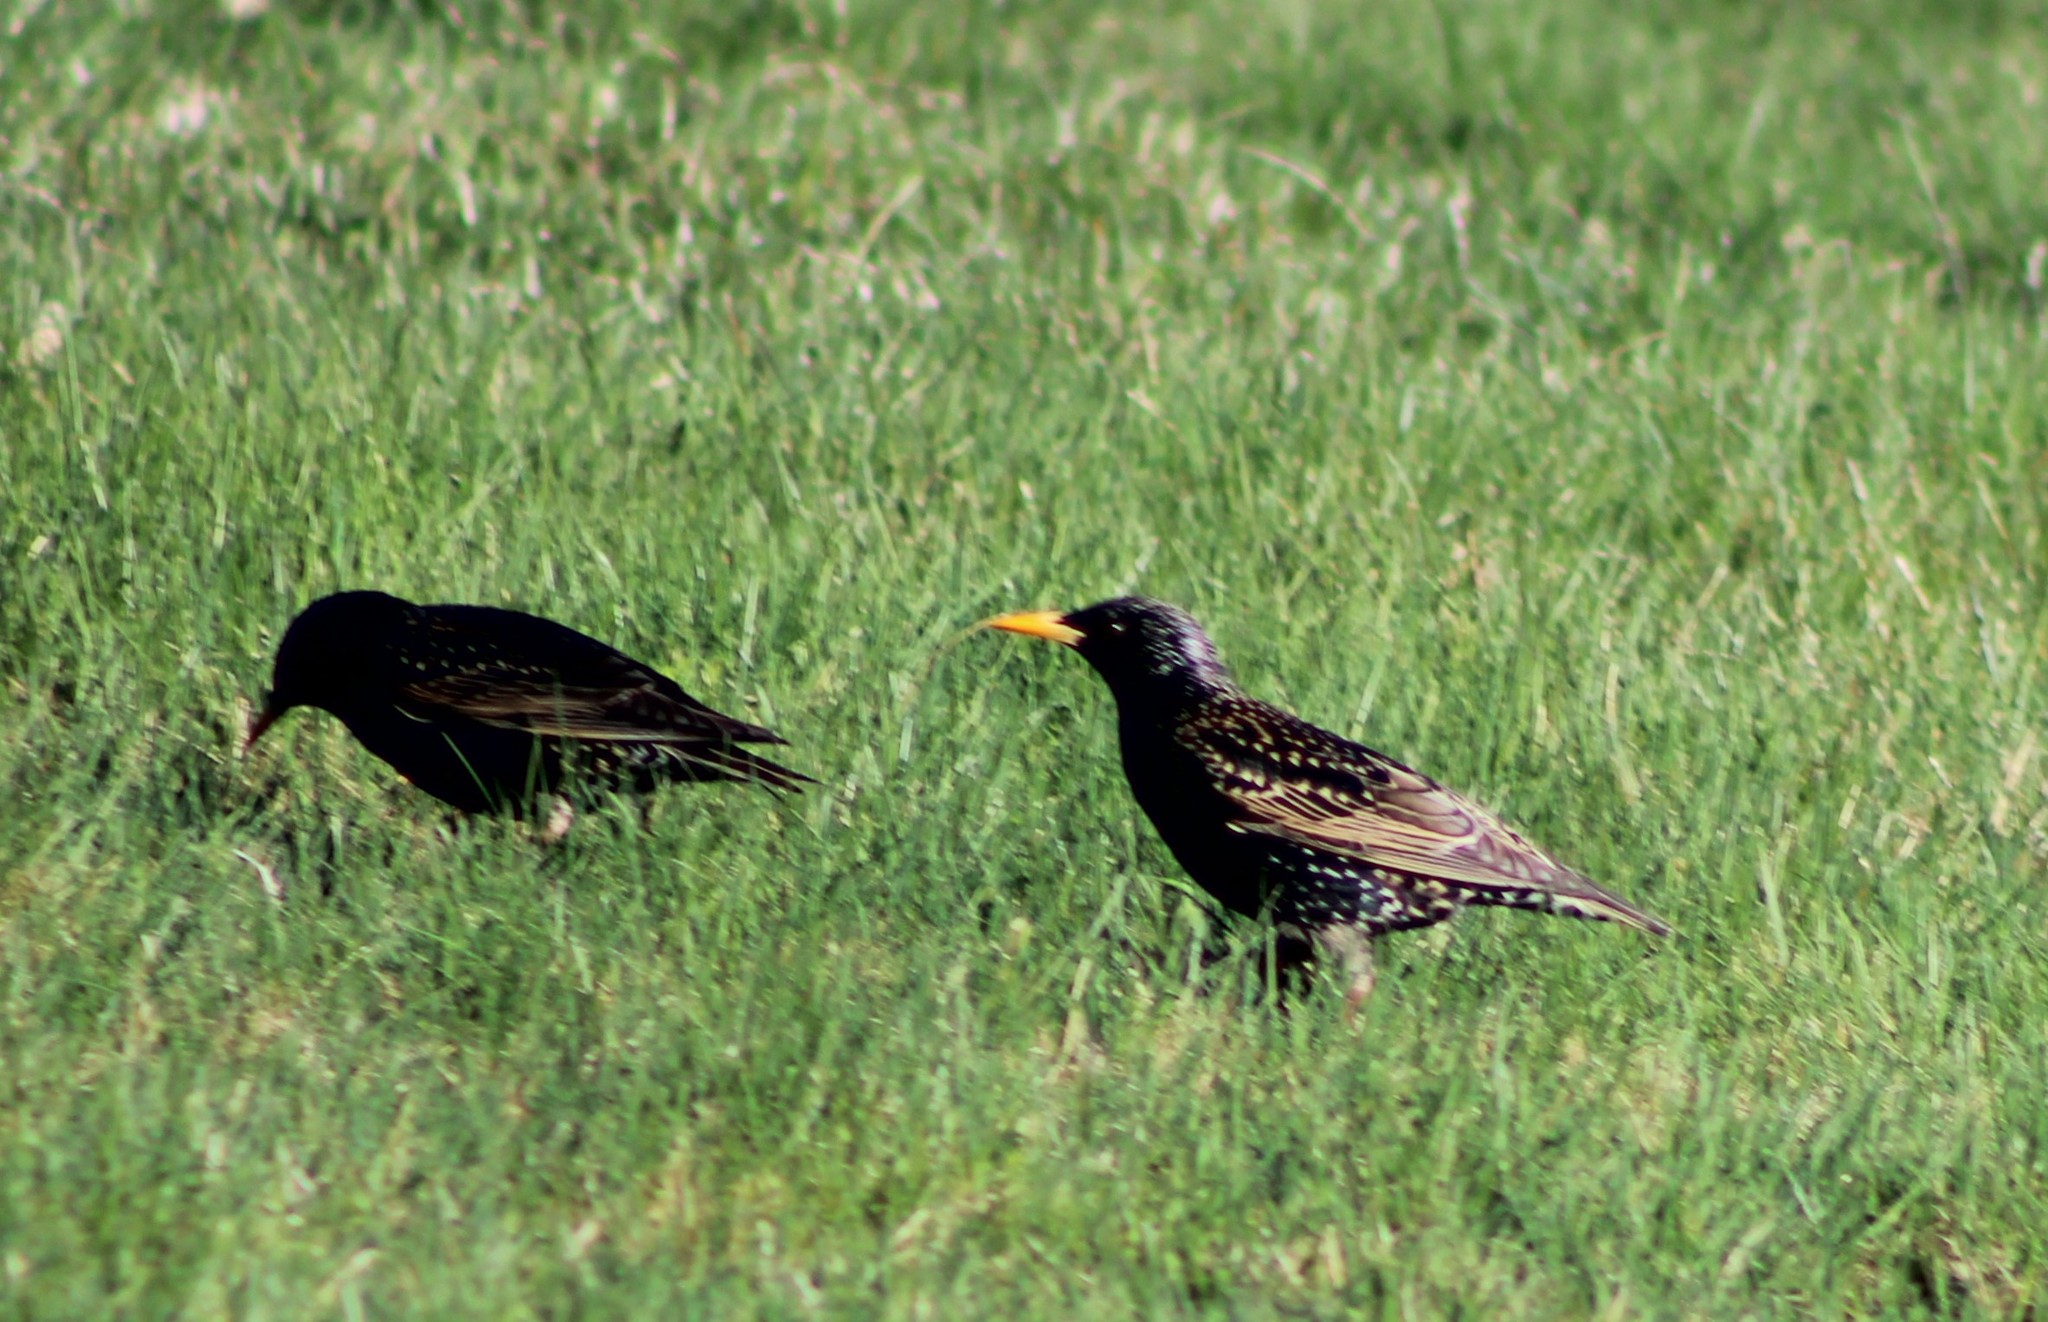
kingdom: Animalia
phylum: Chordata
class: Aves
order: Passeriformes
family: Sturnidae
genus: Sturnus
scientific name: Sturnus vulgaris
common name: Common starling
